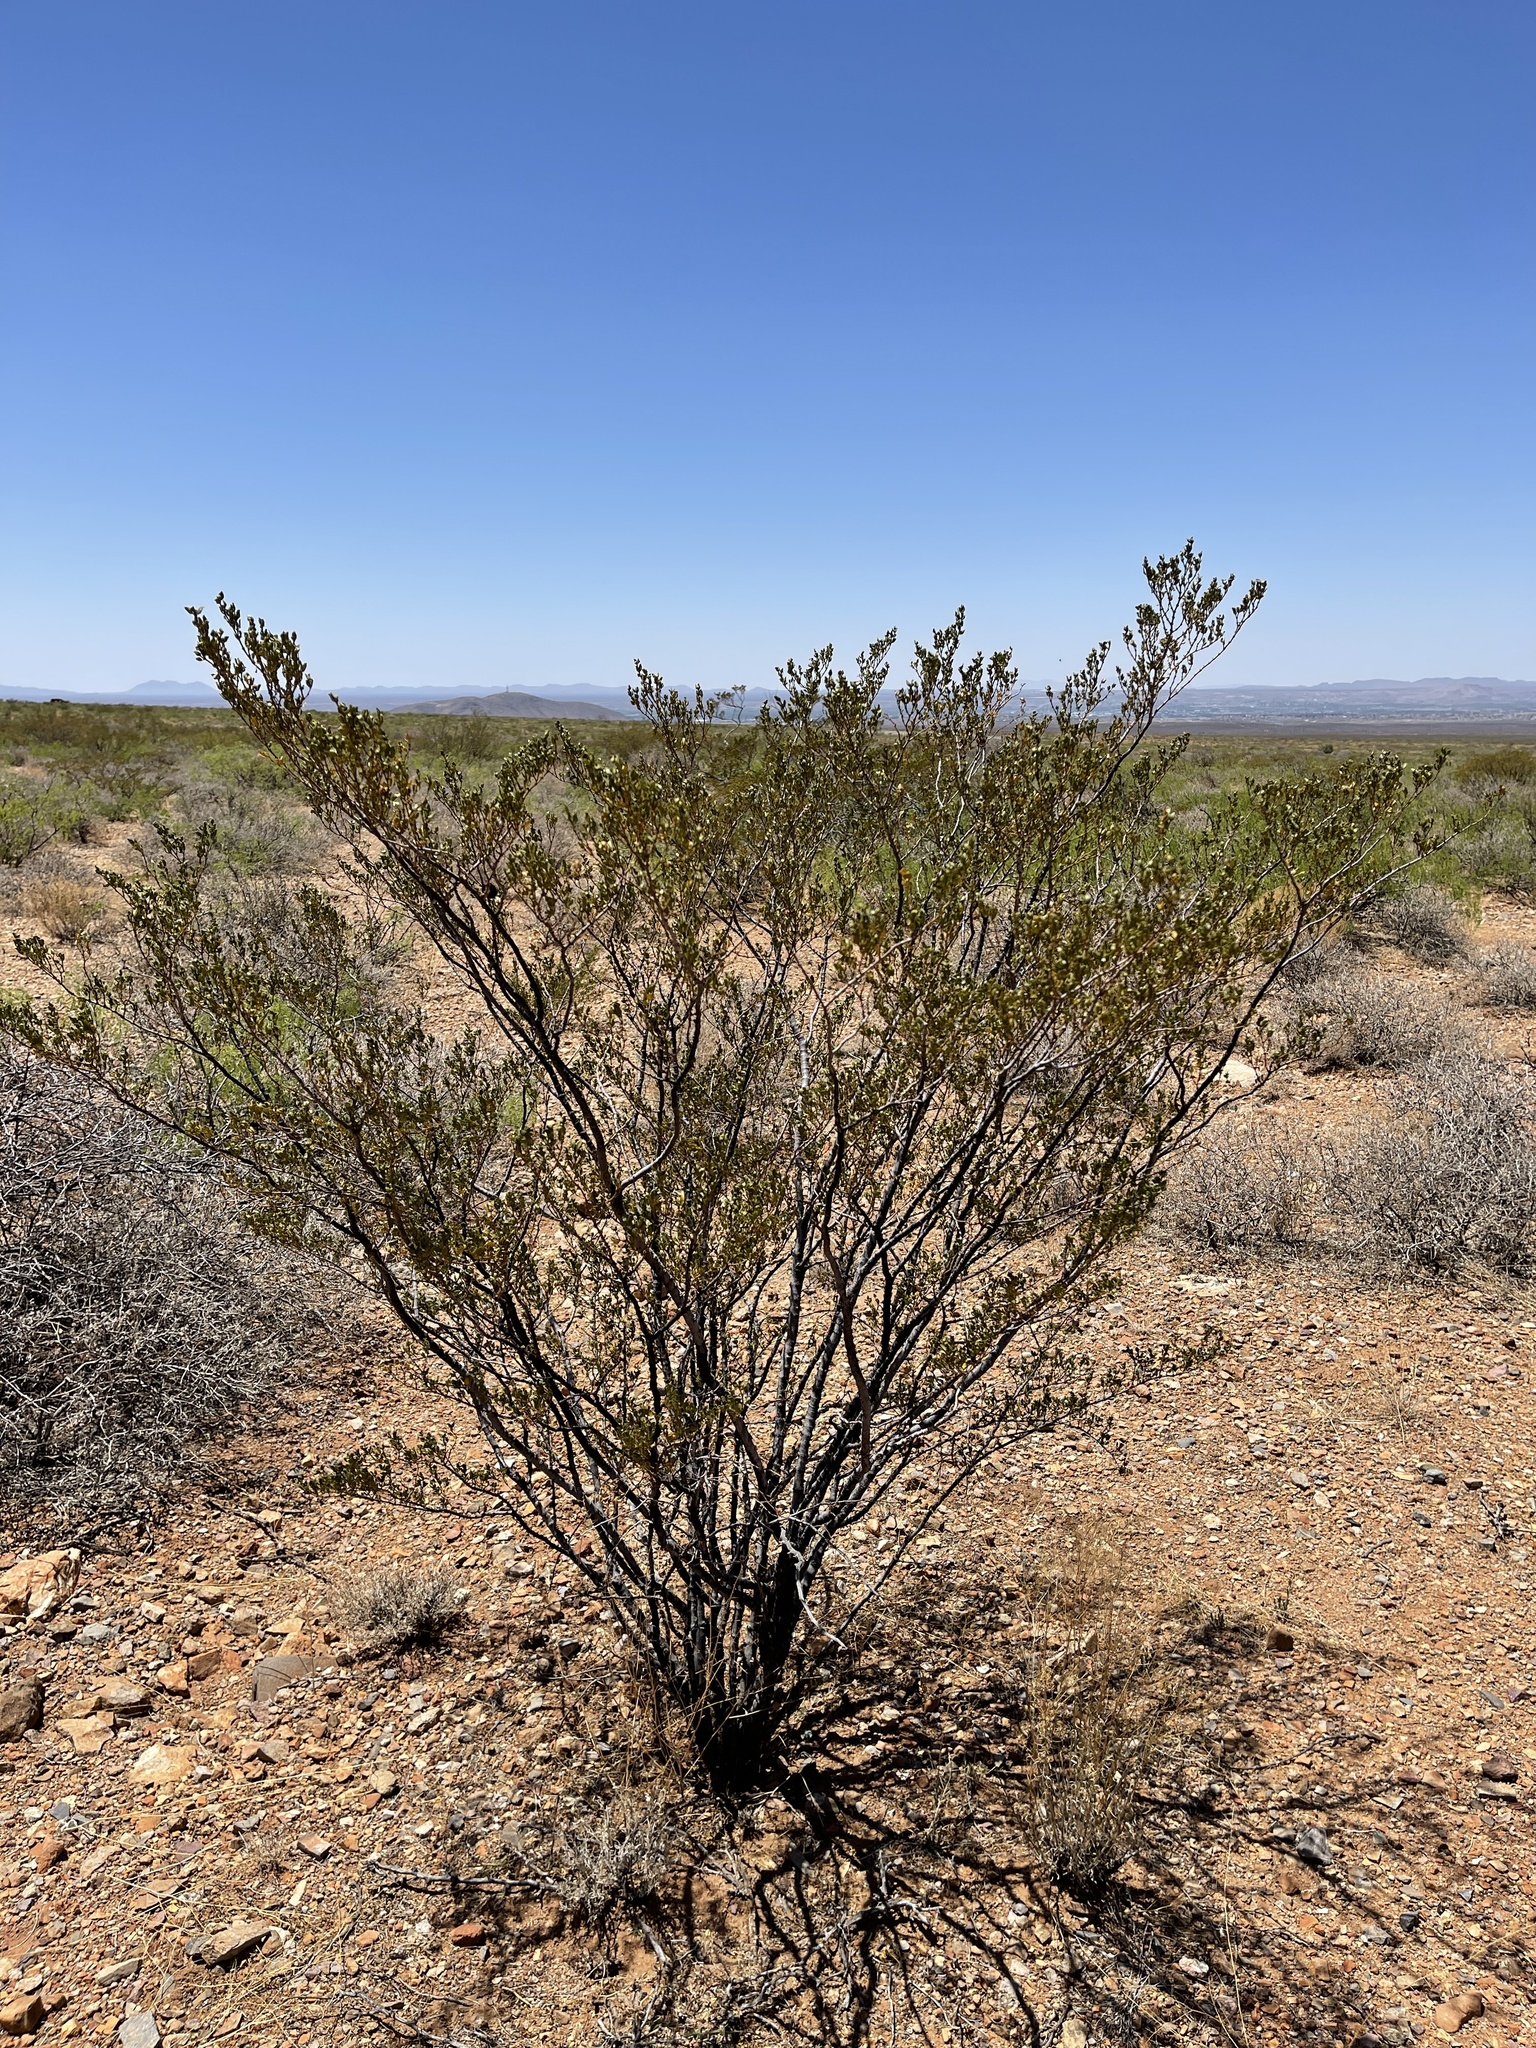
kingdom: Plantae
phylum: Tracheophyta
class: Magnoliopsida
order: Zygophyllales
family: Zygophyllaceae
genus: Larrea
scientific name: Larrea tridentata
